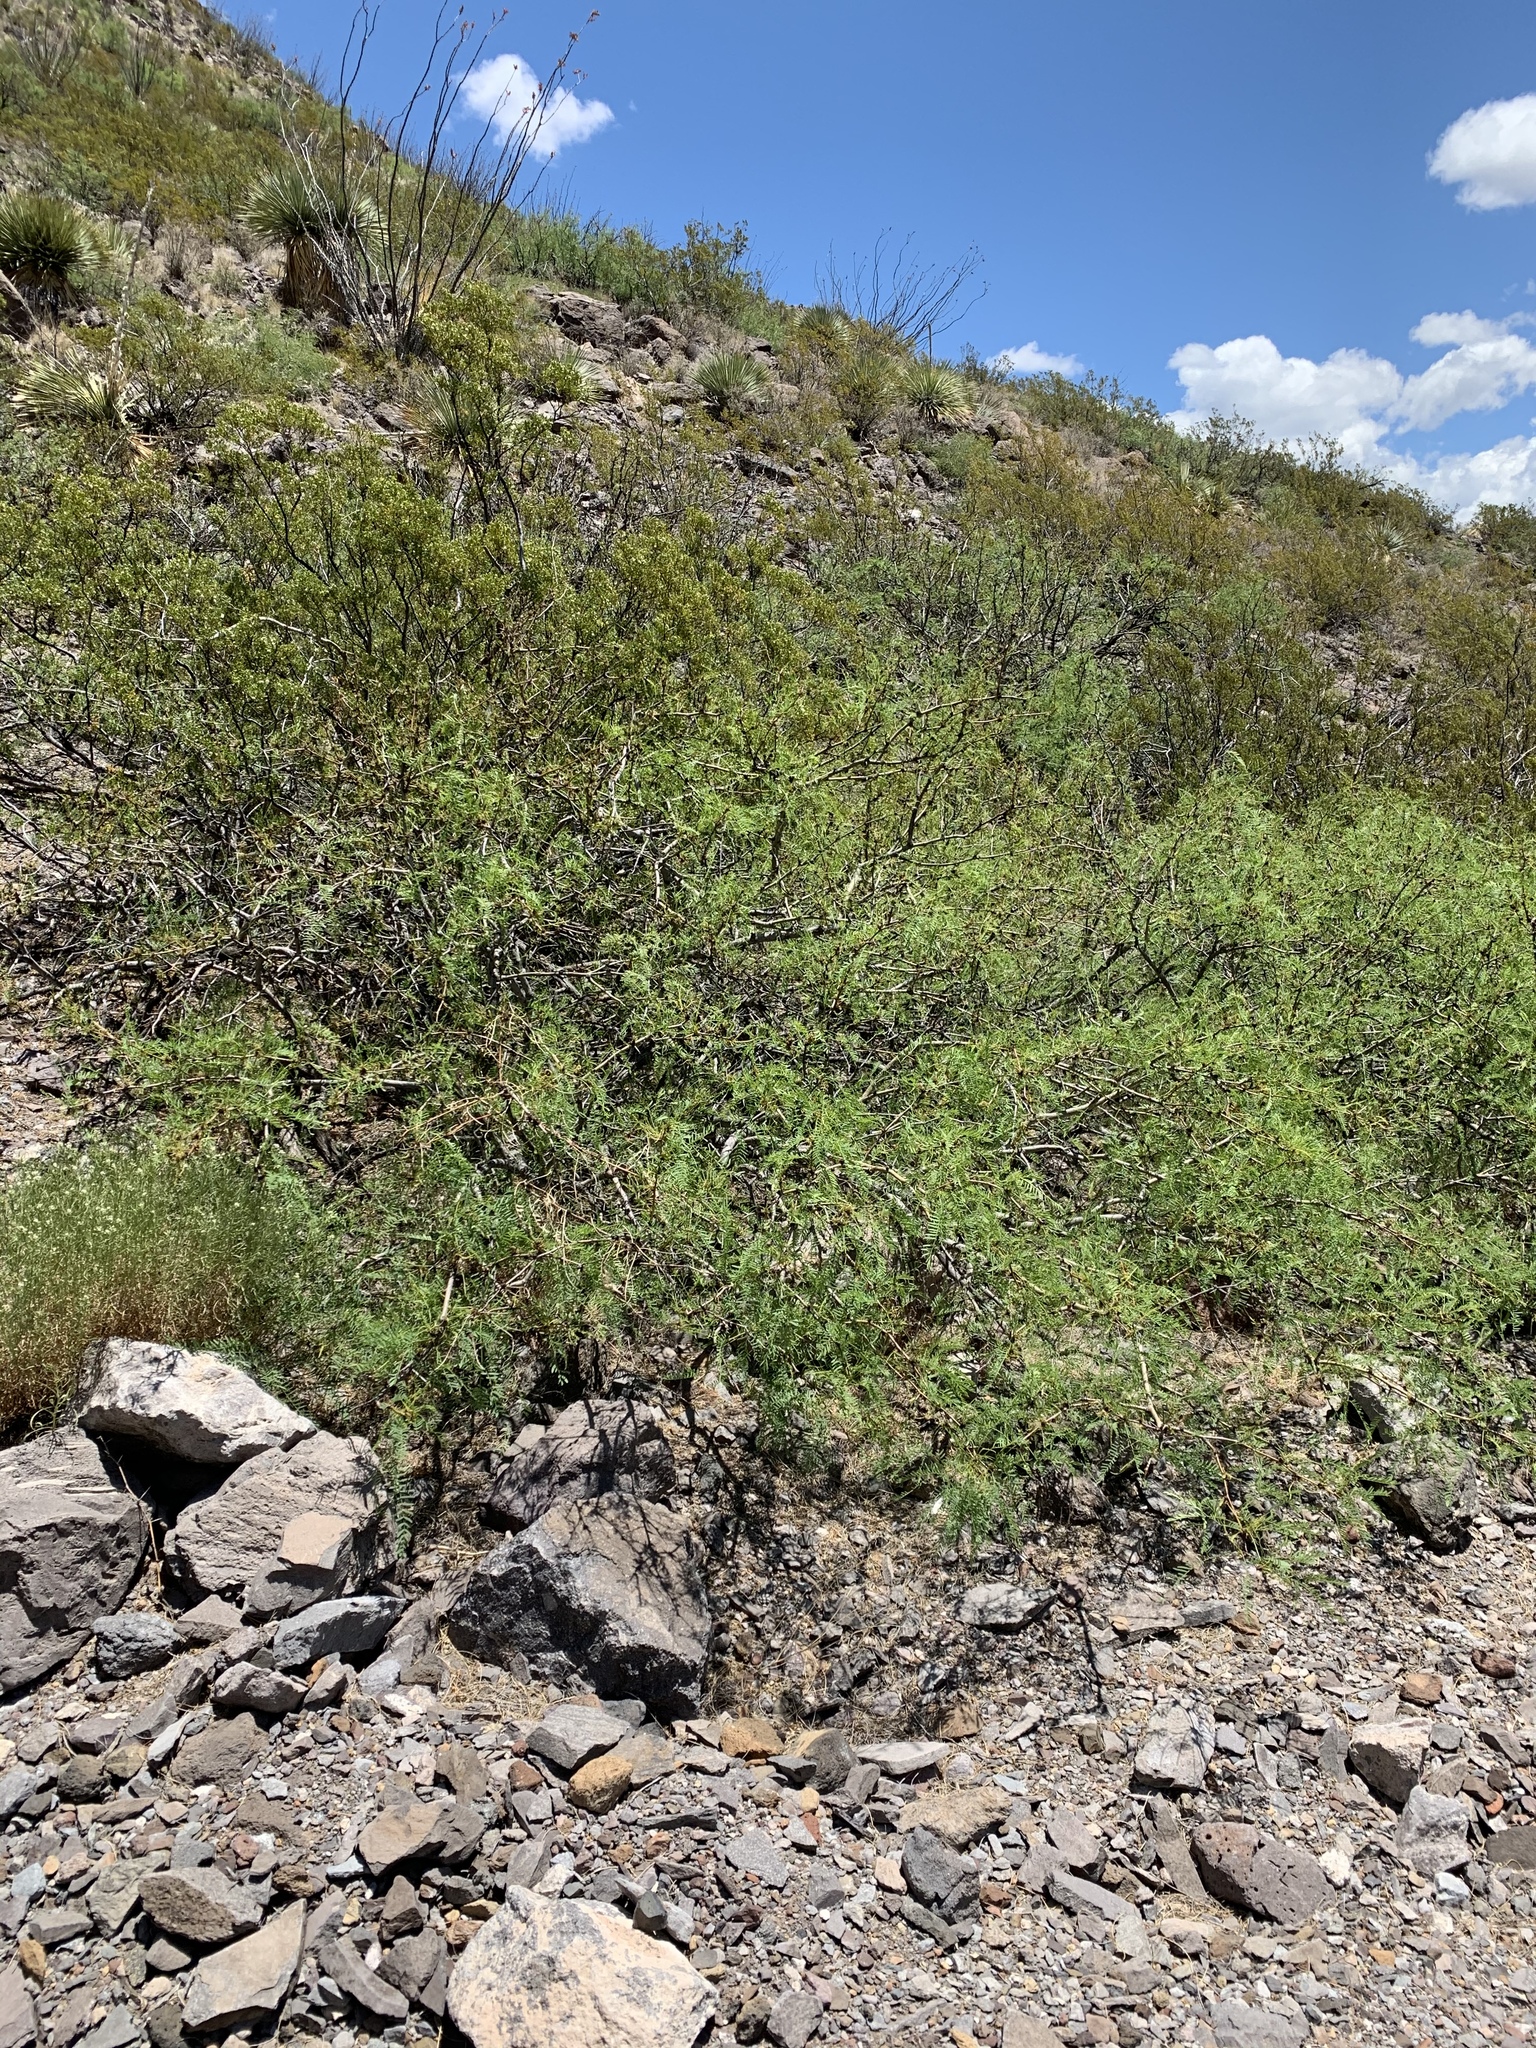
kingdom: Plantae
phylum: Tracheophyta
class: Magnoliopsida
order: Fabales
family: Fabaceae
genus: Prosopis
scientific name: Prosopis glandulosa
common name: Honey mesquite
